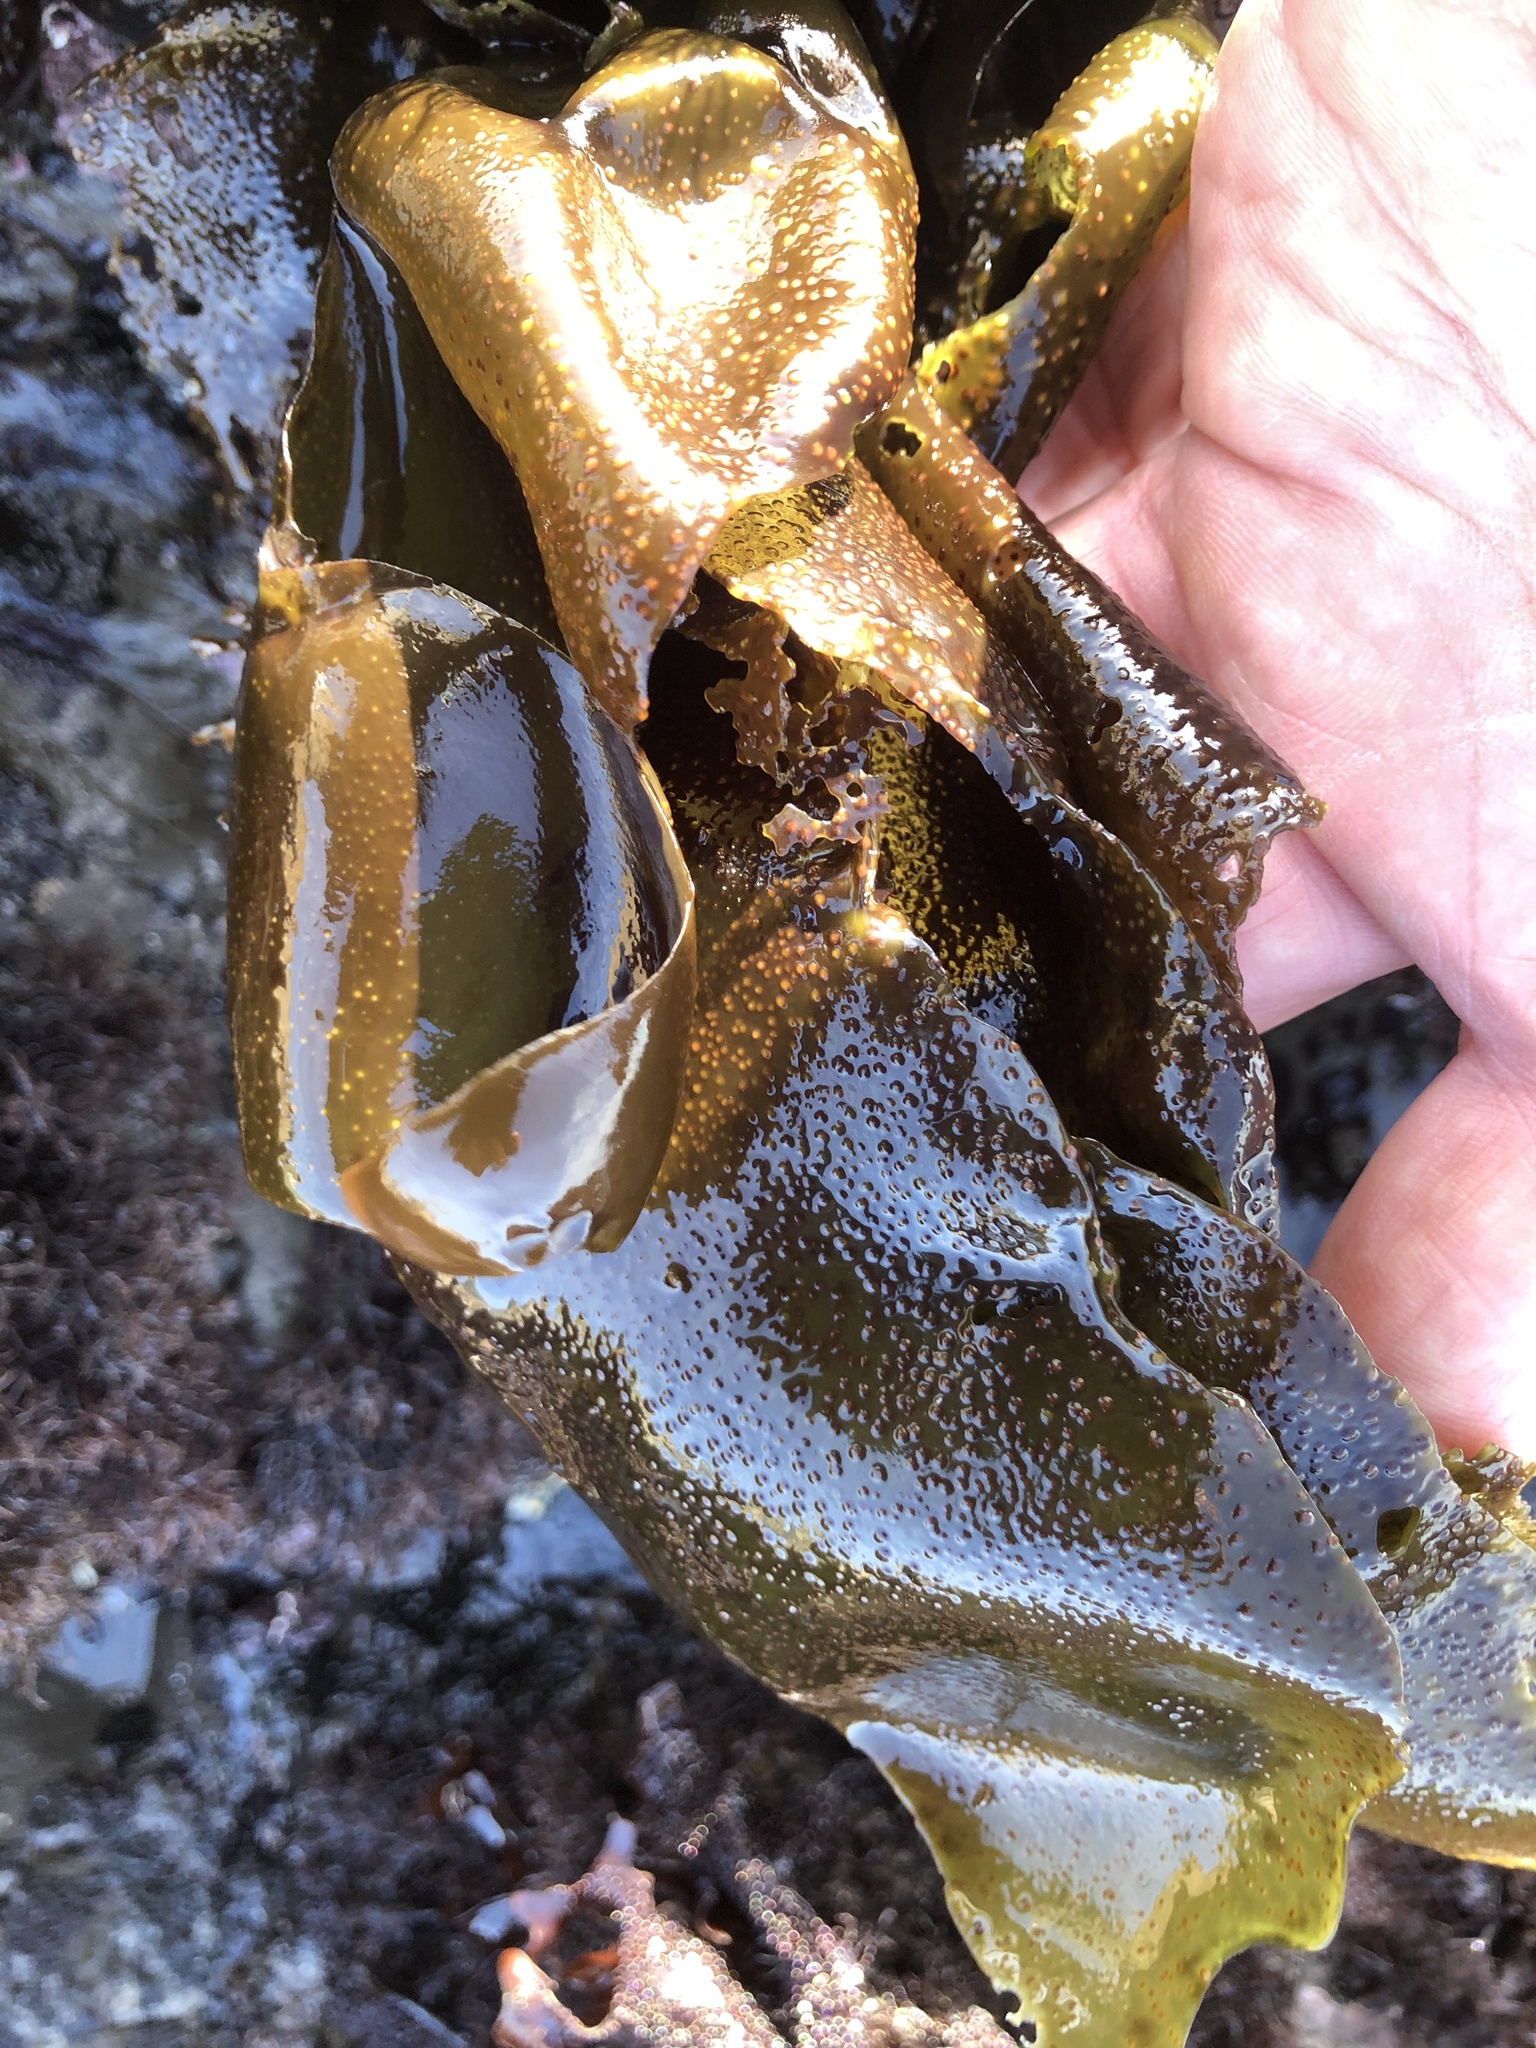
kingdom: Plantae
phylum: Rhodophyta
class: Florideophyceae
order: Gigartinales
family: Gigartinaceae
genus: Mazzaella
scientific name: Mazzaella oregona
